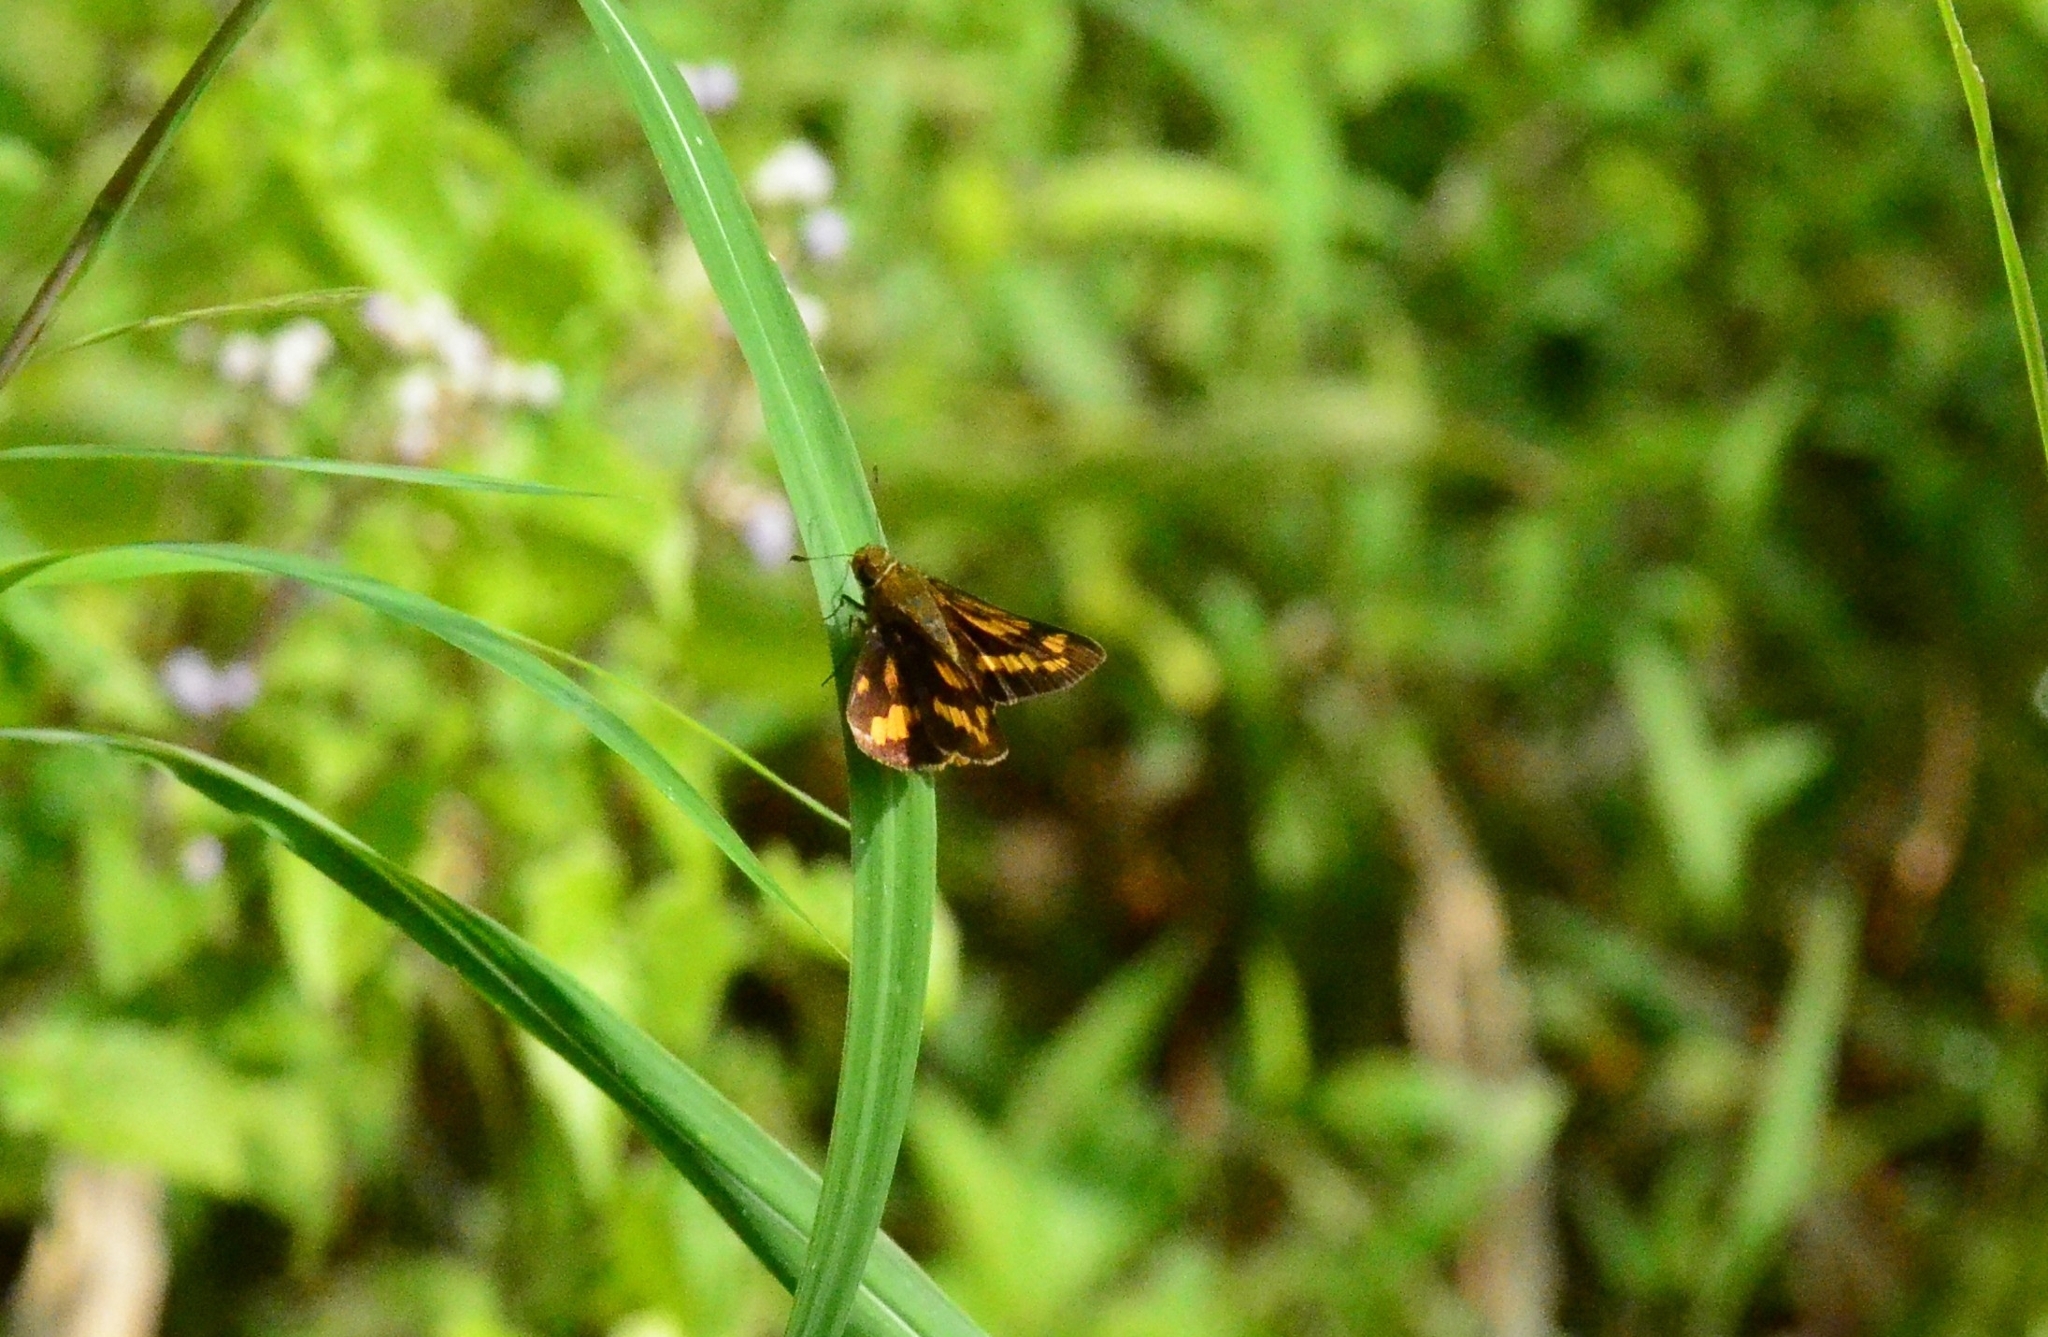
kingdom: Animalia
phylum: Arthropoda
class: Insecta
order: Lepidoptera
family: Hesperiidae
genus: Potanthus
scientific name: Potanthus pallida
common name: Pallid dart
